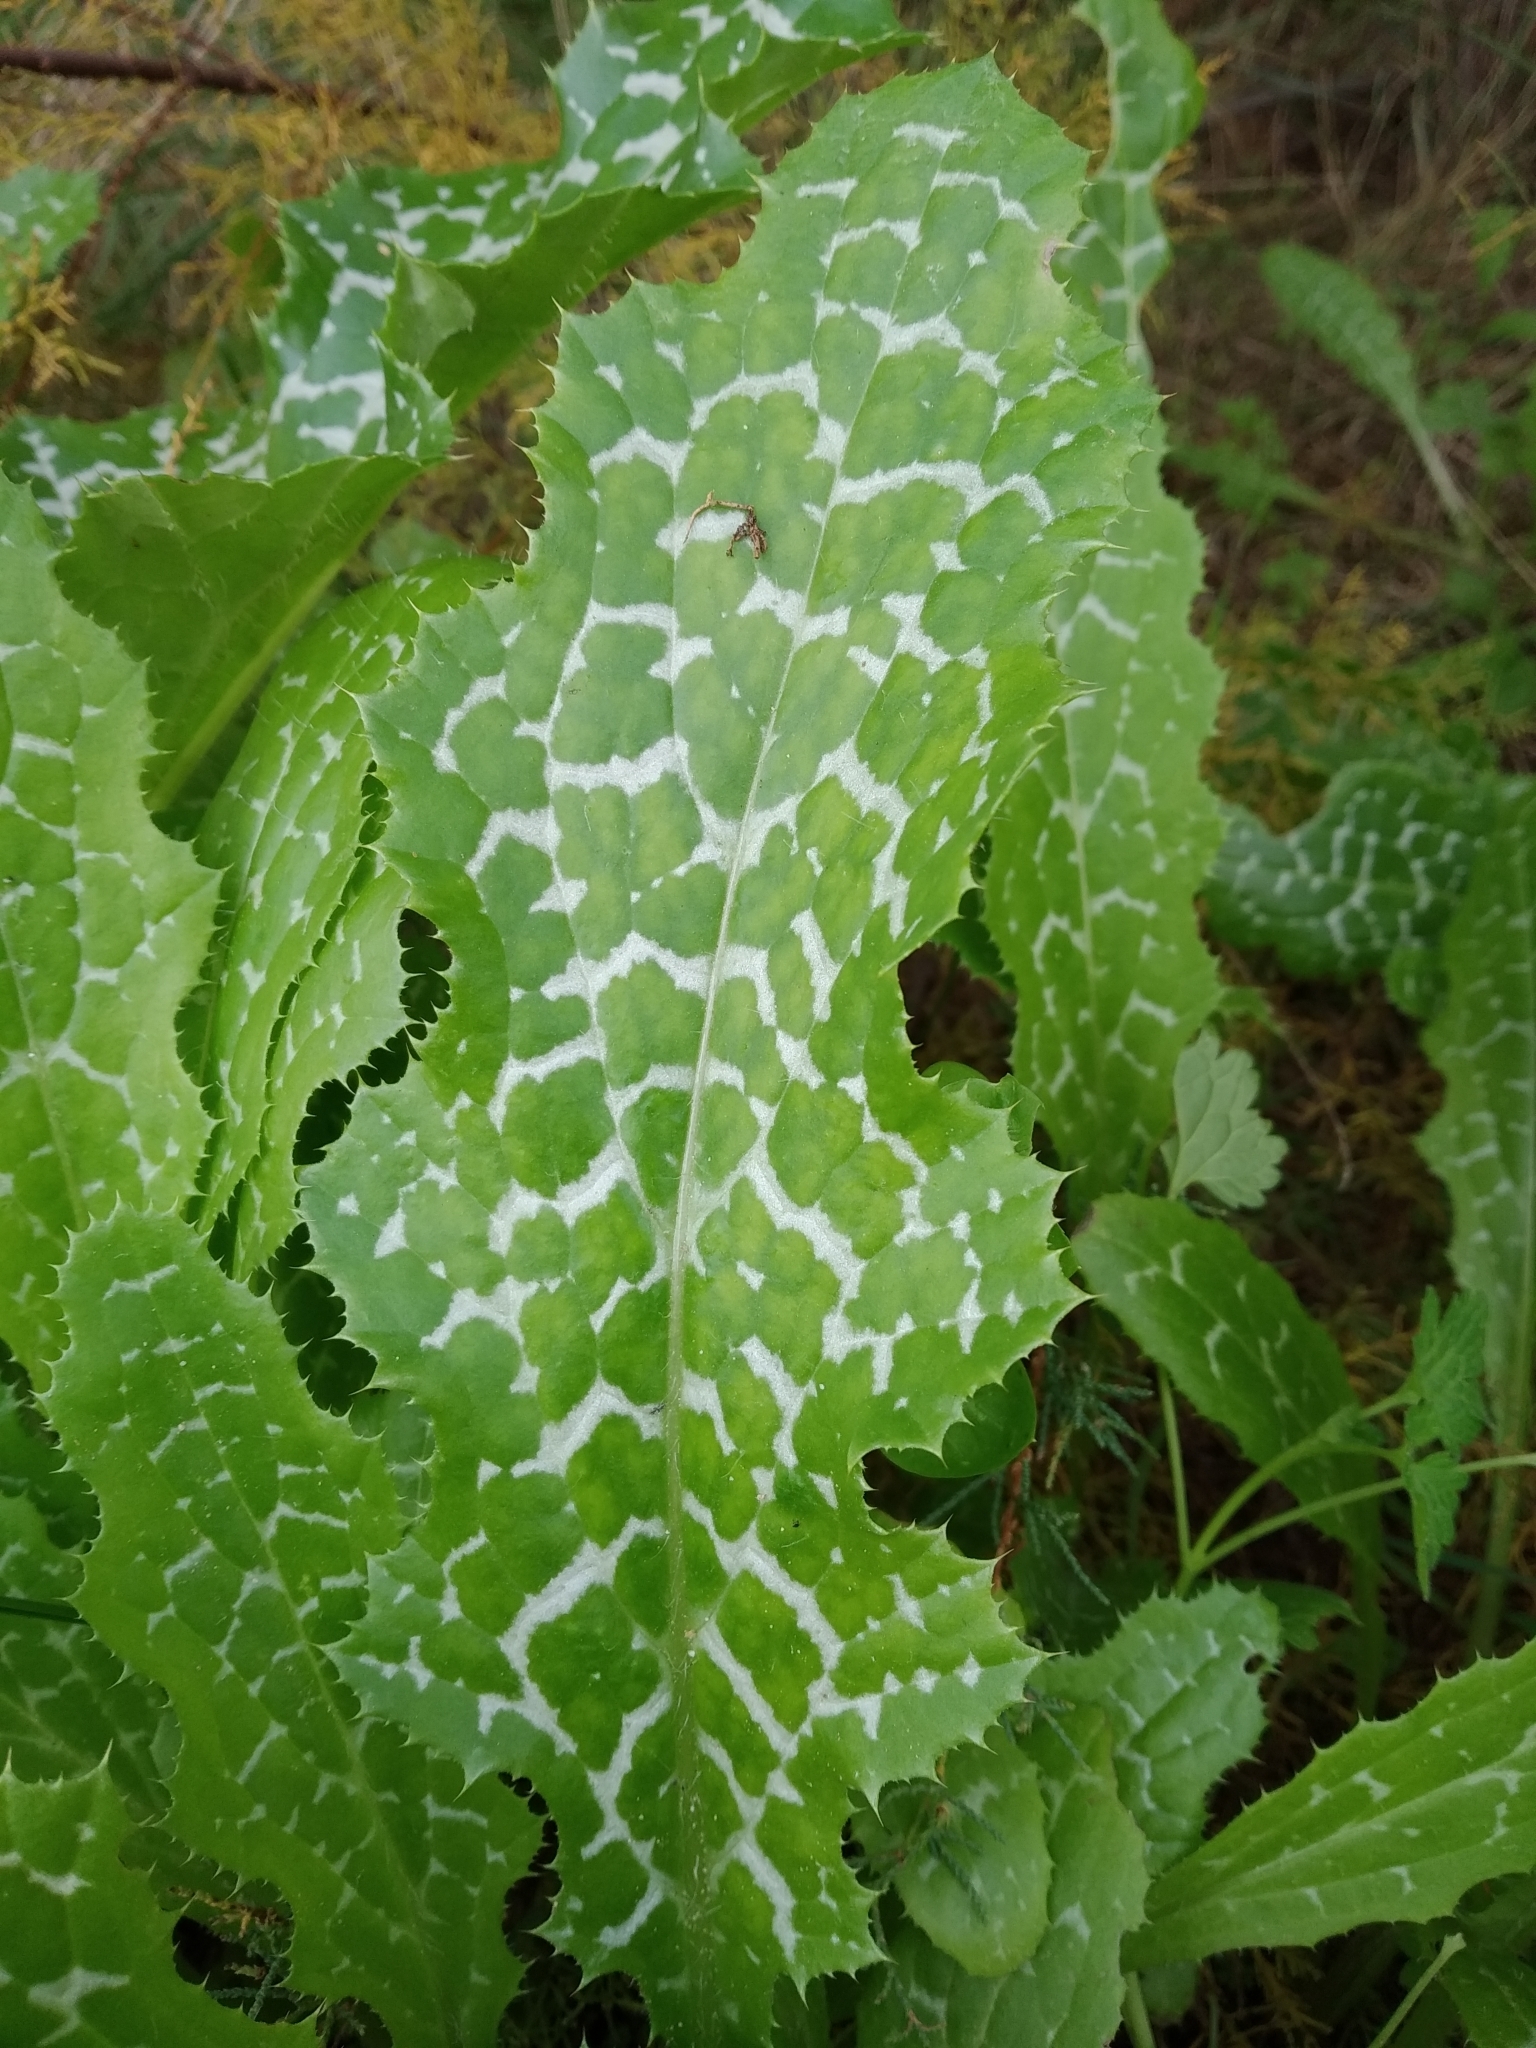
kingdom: Plantae
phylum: Tracheophyta
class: Magnoliopsida
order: Asterales
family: Asteraceae
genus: Silybum
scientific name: Silybum marianum
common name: Milk thistle
